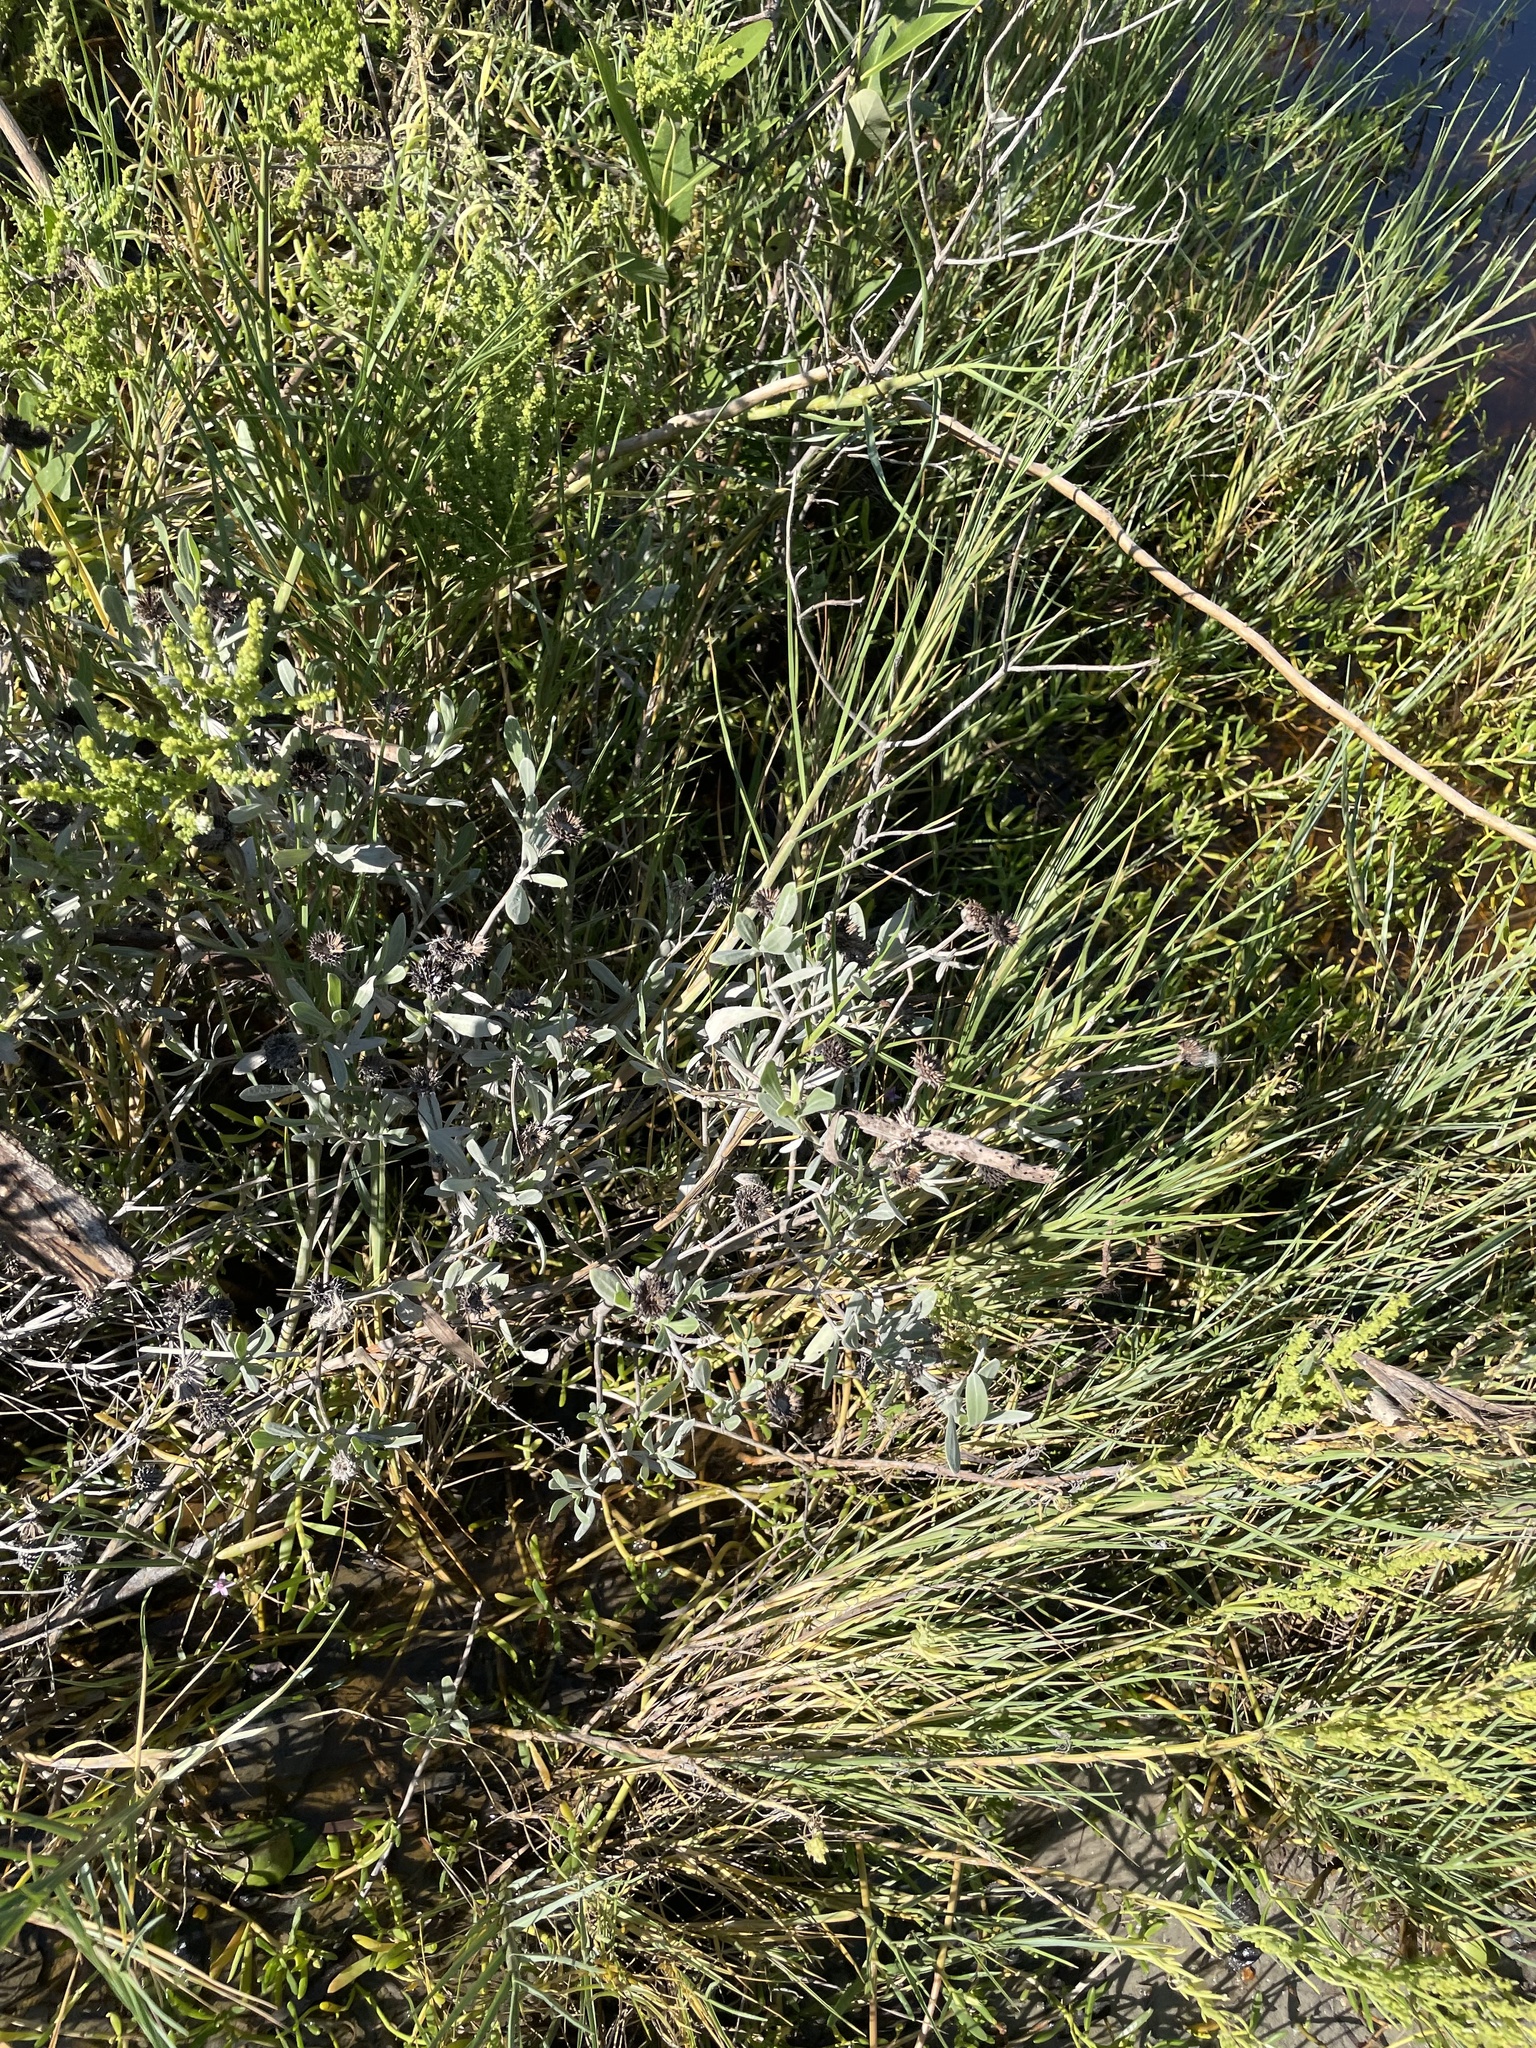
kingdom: Plantae
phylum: Tracheophyta
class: Magnoliopsida
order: Asterales
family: Asteraceae
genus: Borrichia
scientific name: Borrichia frutescens
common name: Sea oxeye
